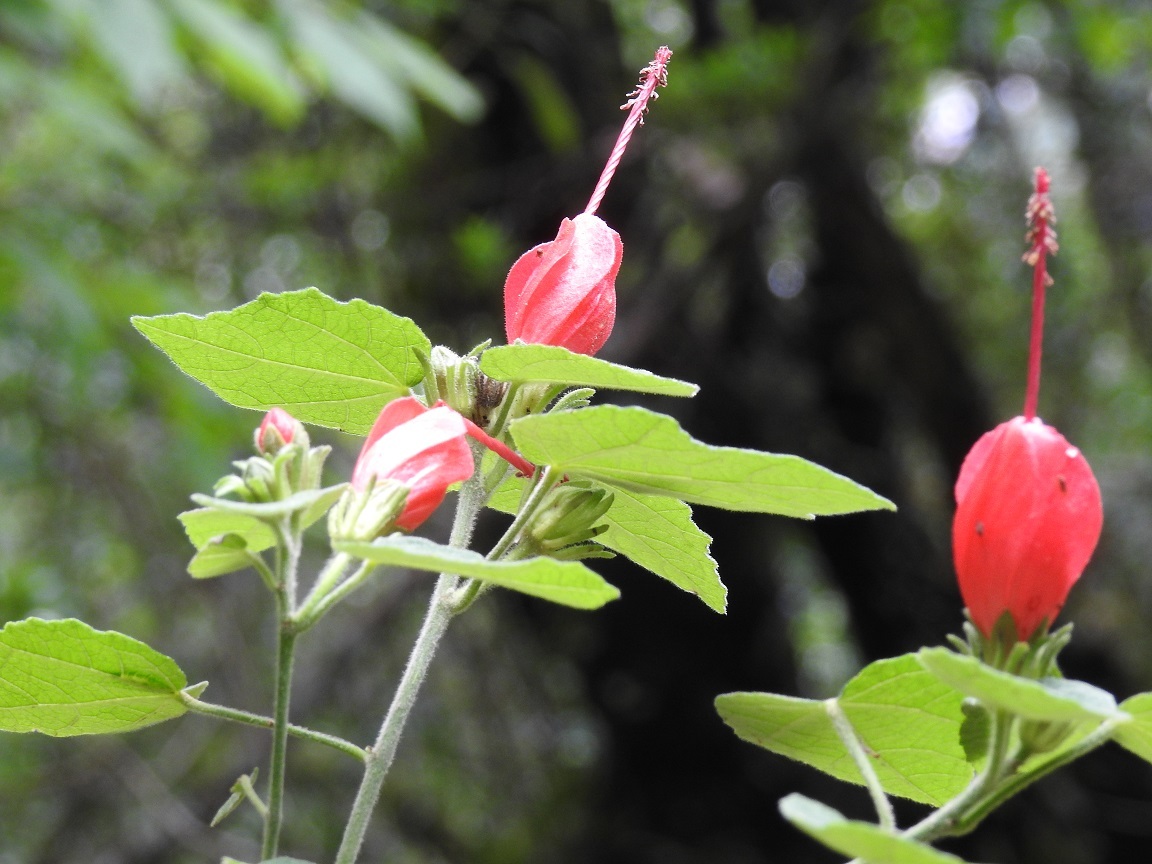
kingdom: Plantae
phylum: Tracheophyta
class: Magnoliopsida
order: Malvales
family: Malvaceae
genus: Malvaviscus
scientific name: Malvaviscus arboreus
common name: Wax mallow
